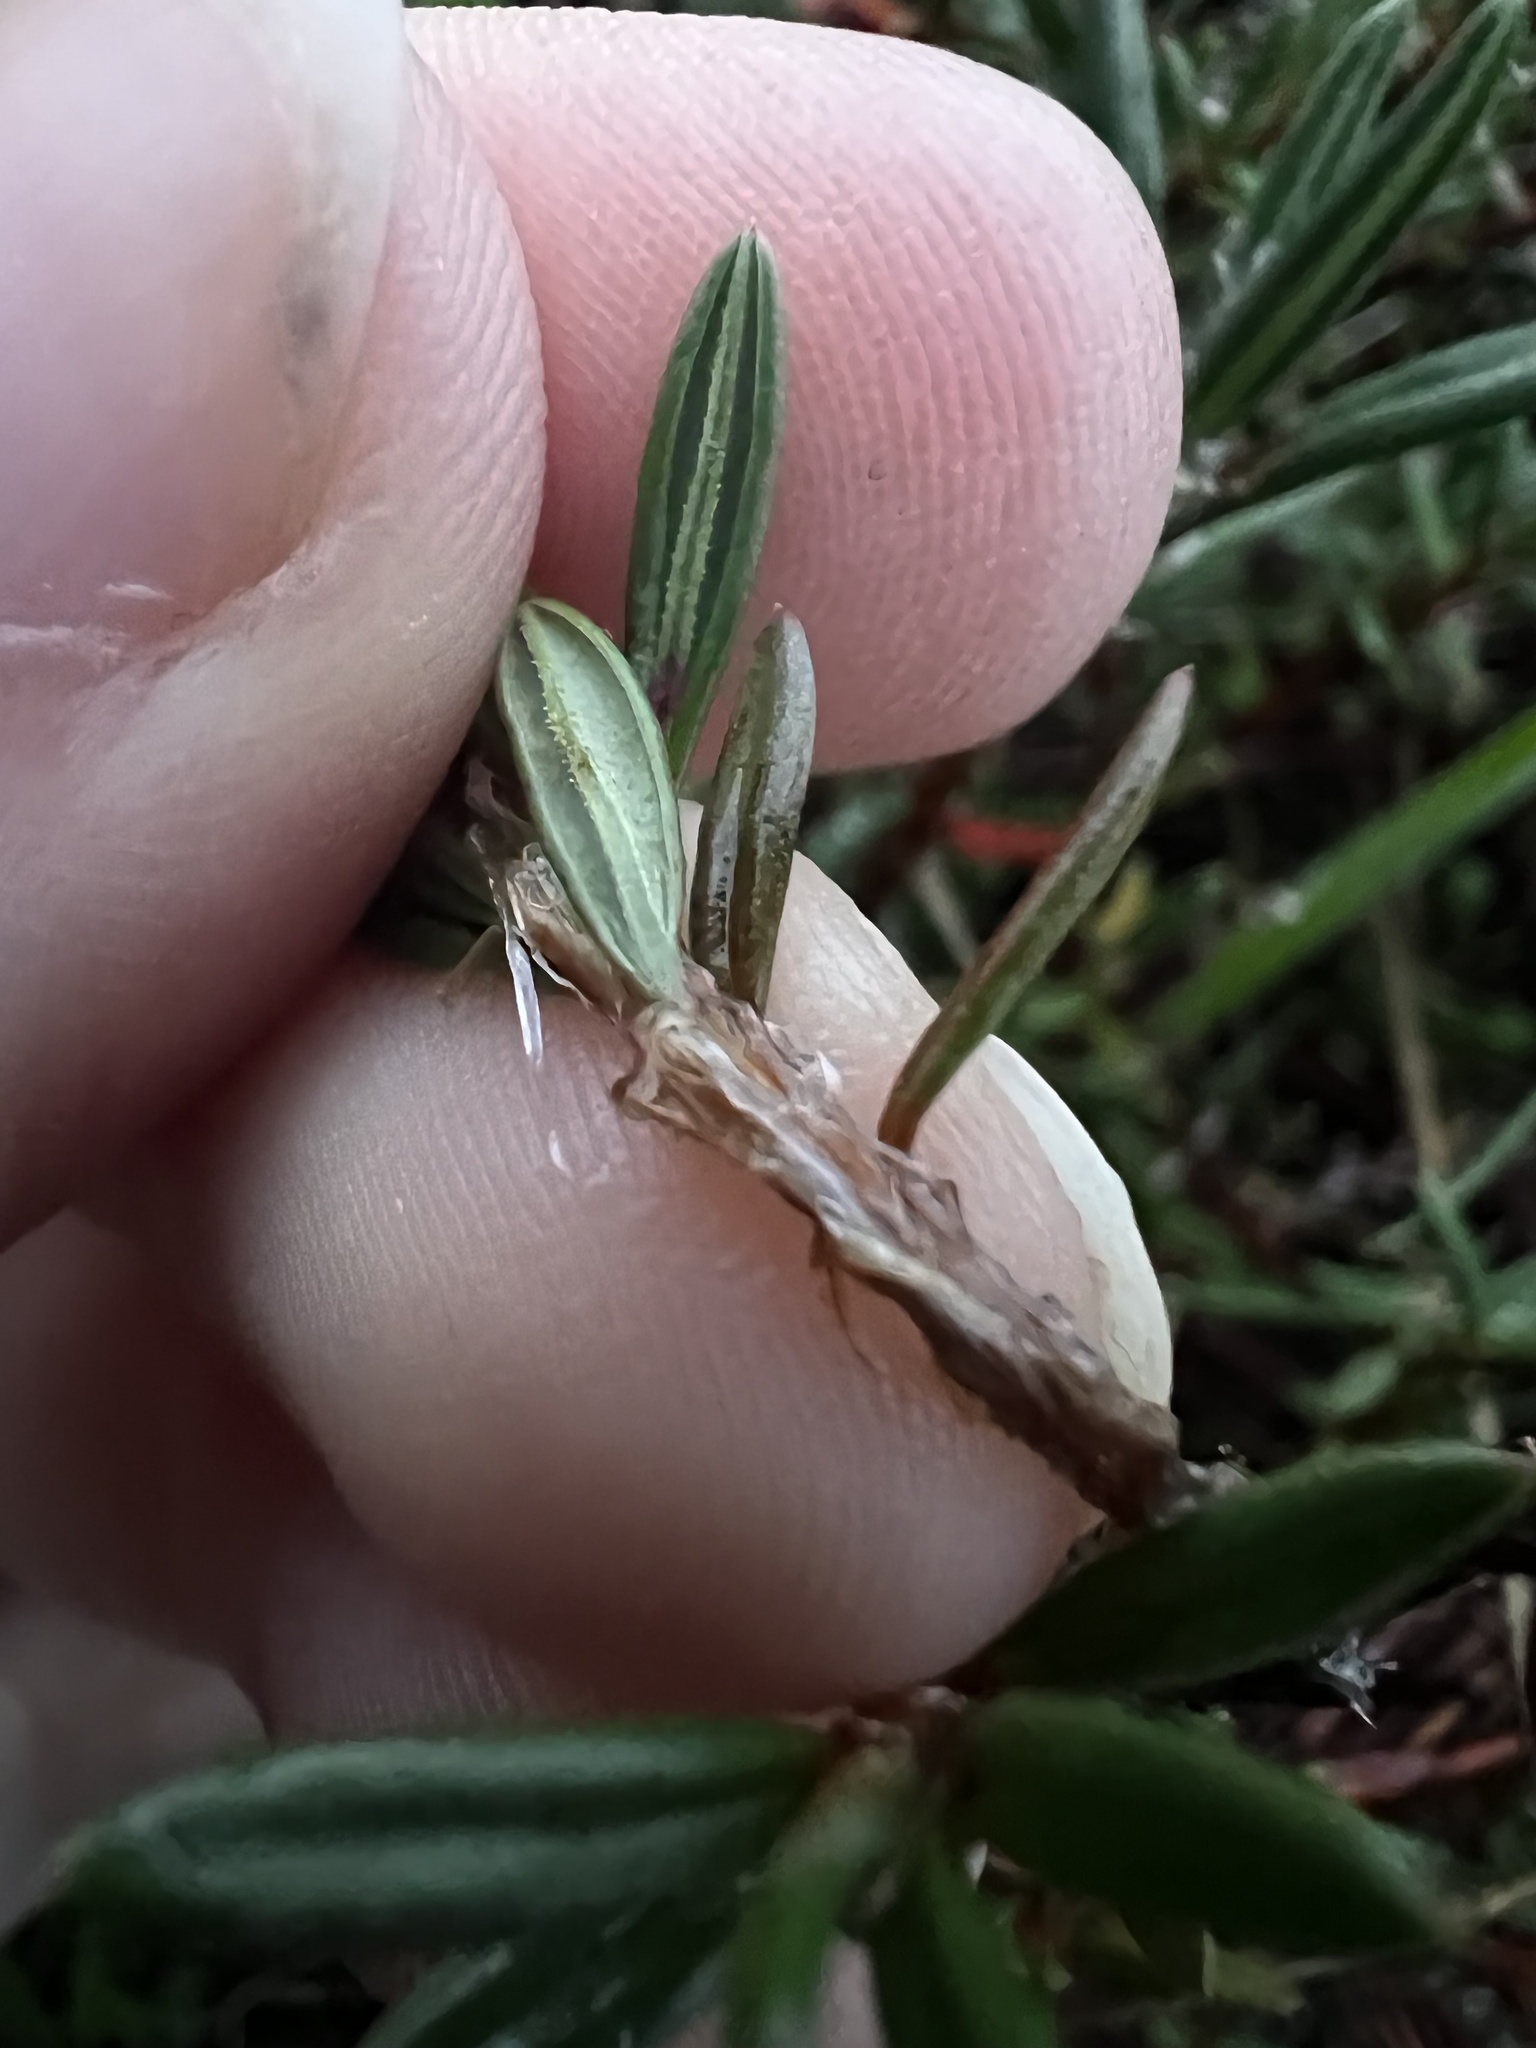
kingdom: Plantae
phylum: Tracheophyta
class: Magnoliopsida
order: Caryophyllales
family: Polygonaceae
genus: Polygonum
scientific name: Polygonum paronychia
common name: Dune knotweed
